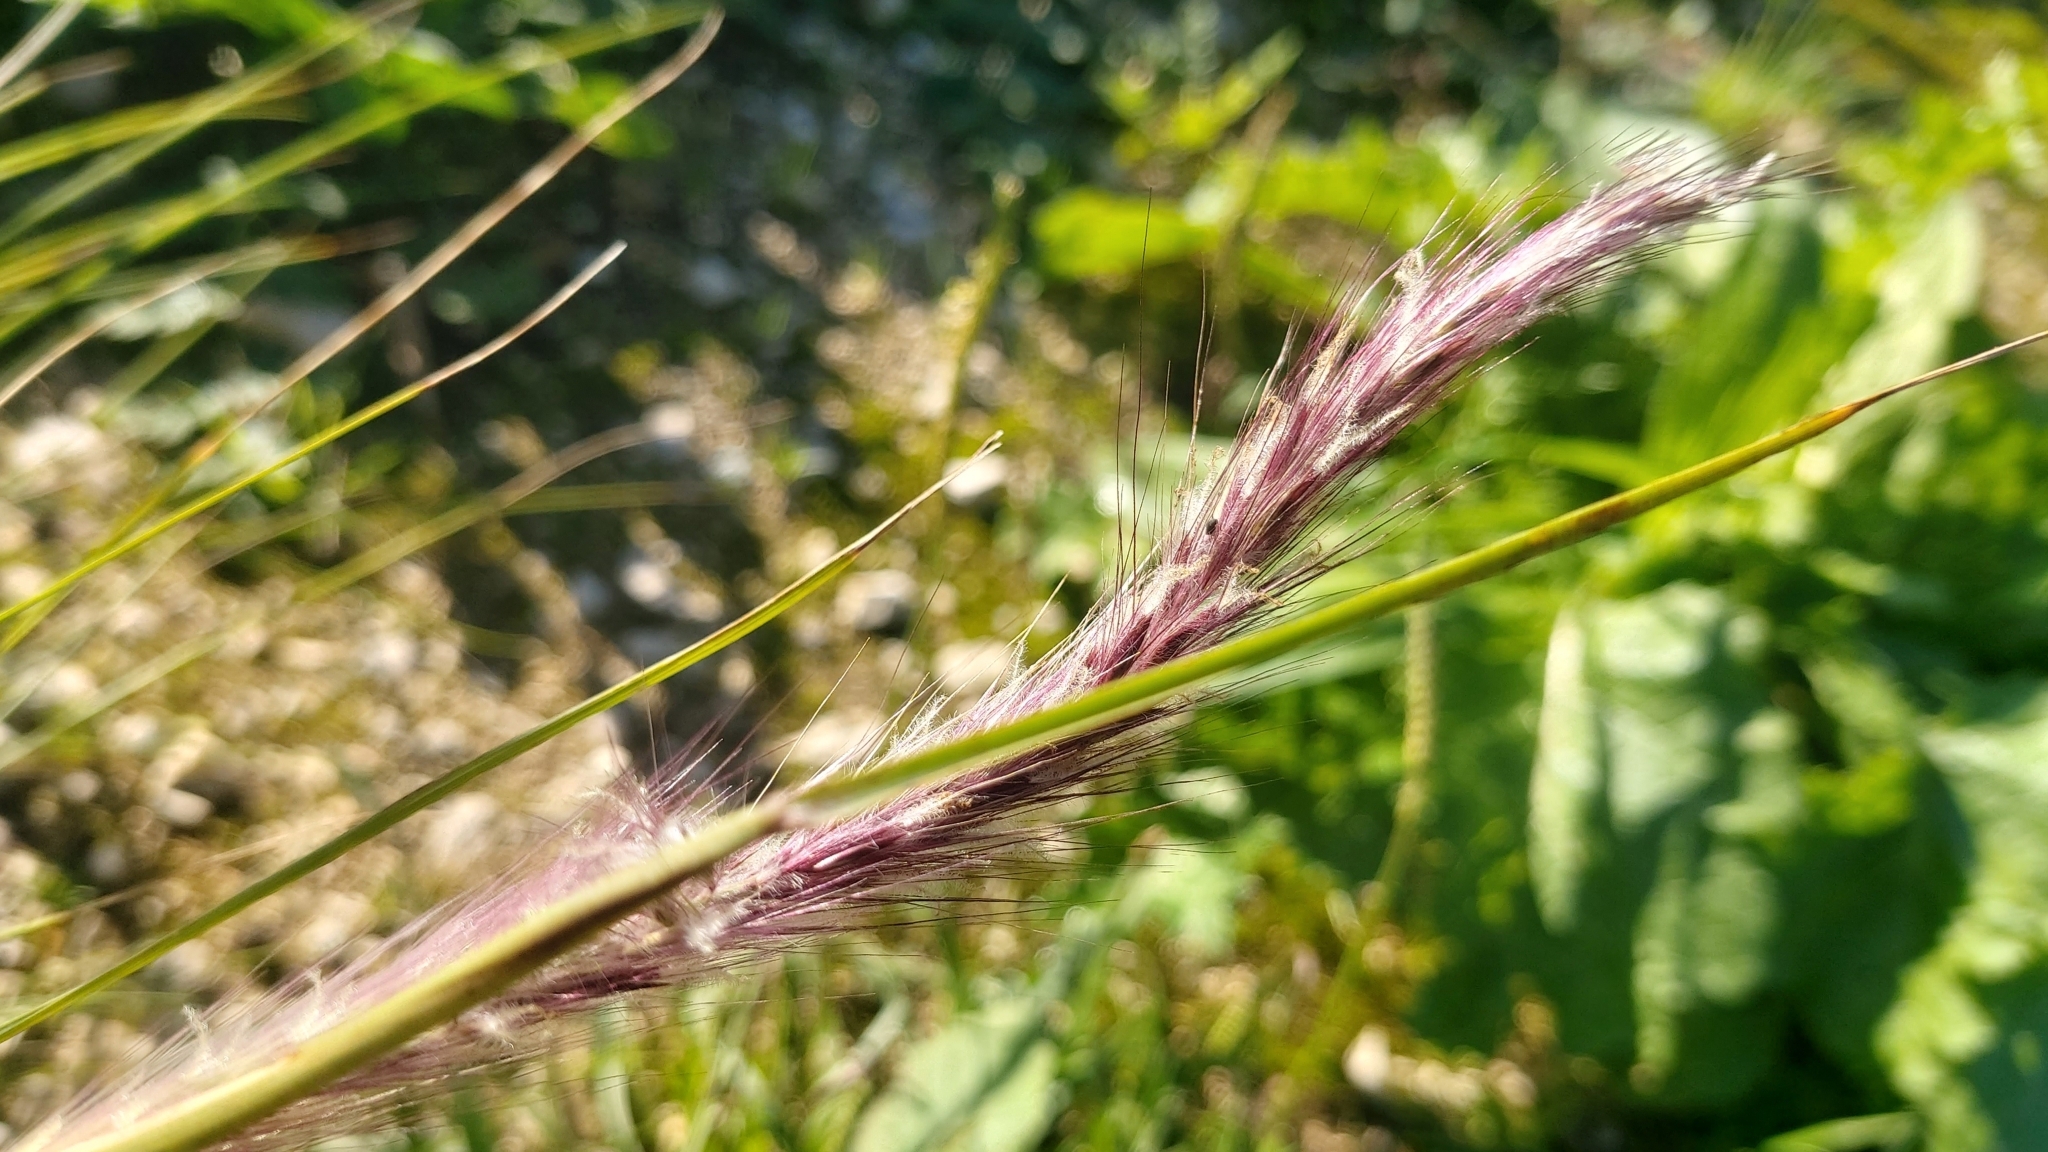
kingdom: Plantae
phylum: Tracheophyta
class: Liliopsida
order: Poales
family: Poaceae
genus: Cenchrus
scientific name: Cenchrus setaceus
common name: Crimson fountaingrass
